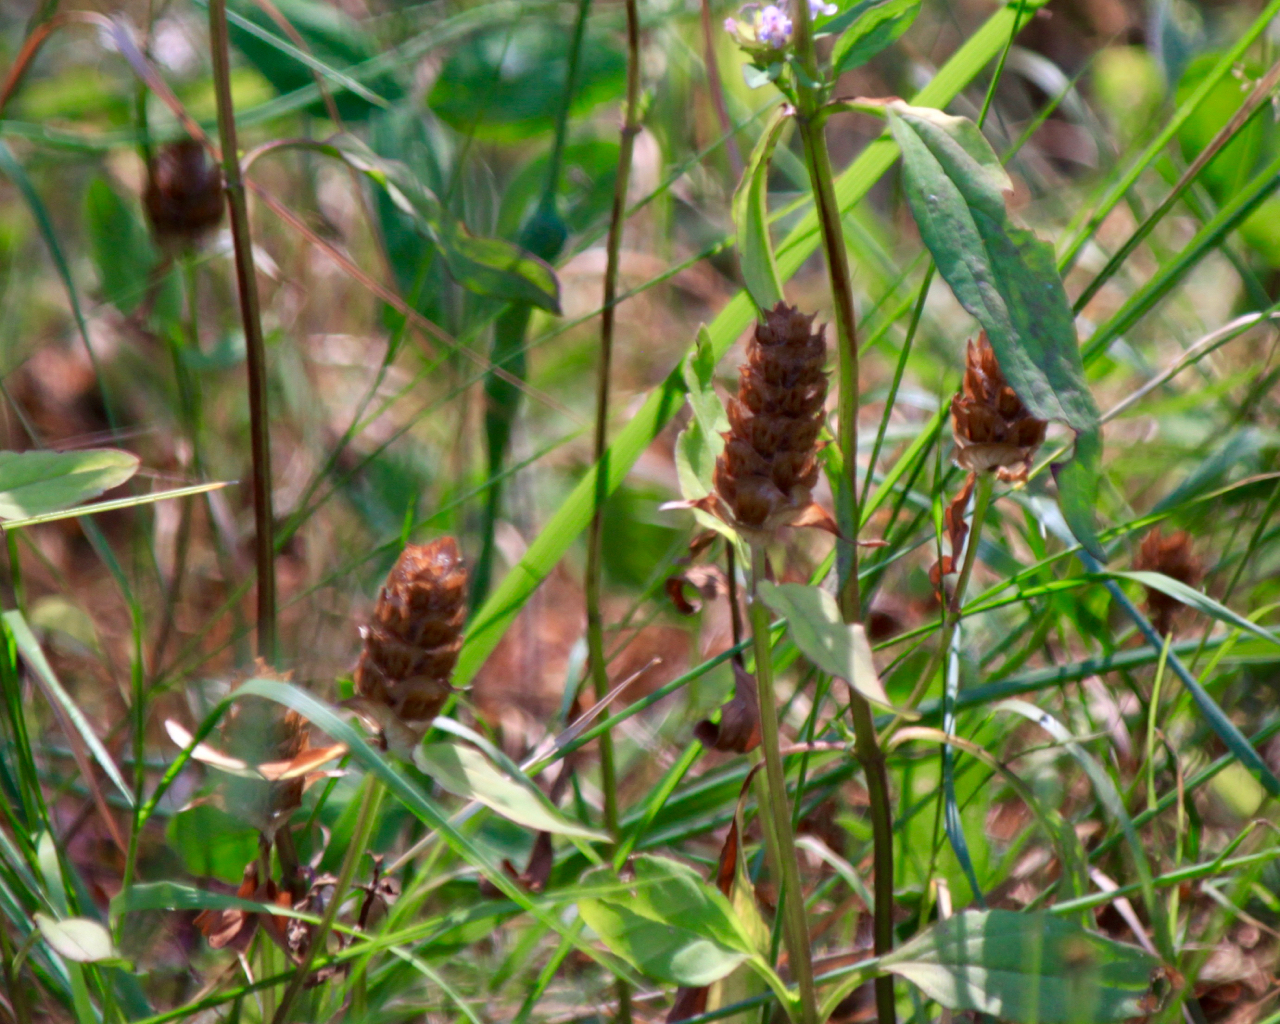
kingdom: Plantae
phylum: Tracheophyta
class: Magnoliopsida
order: Lamiales
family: Lamiaceae
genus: Prunella
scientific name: Prunella vulgaris
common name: Heal-all
